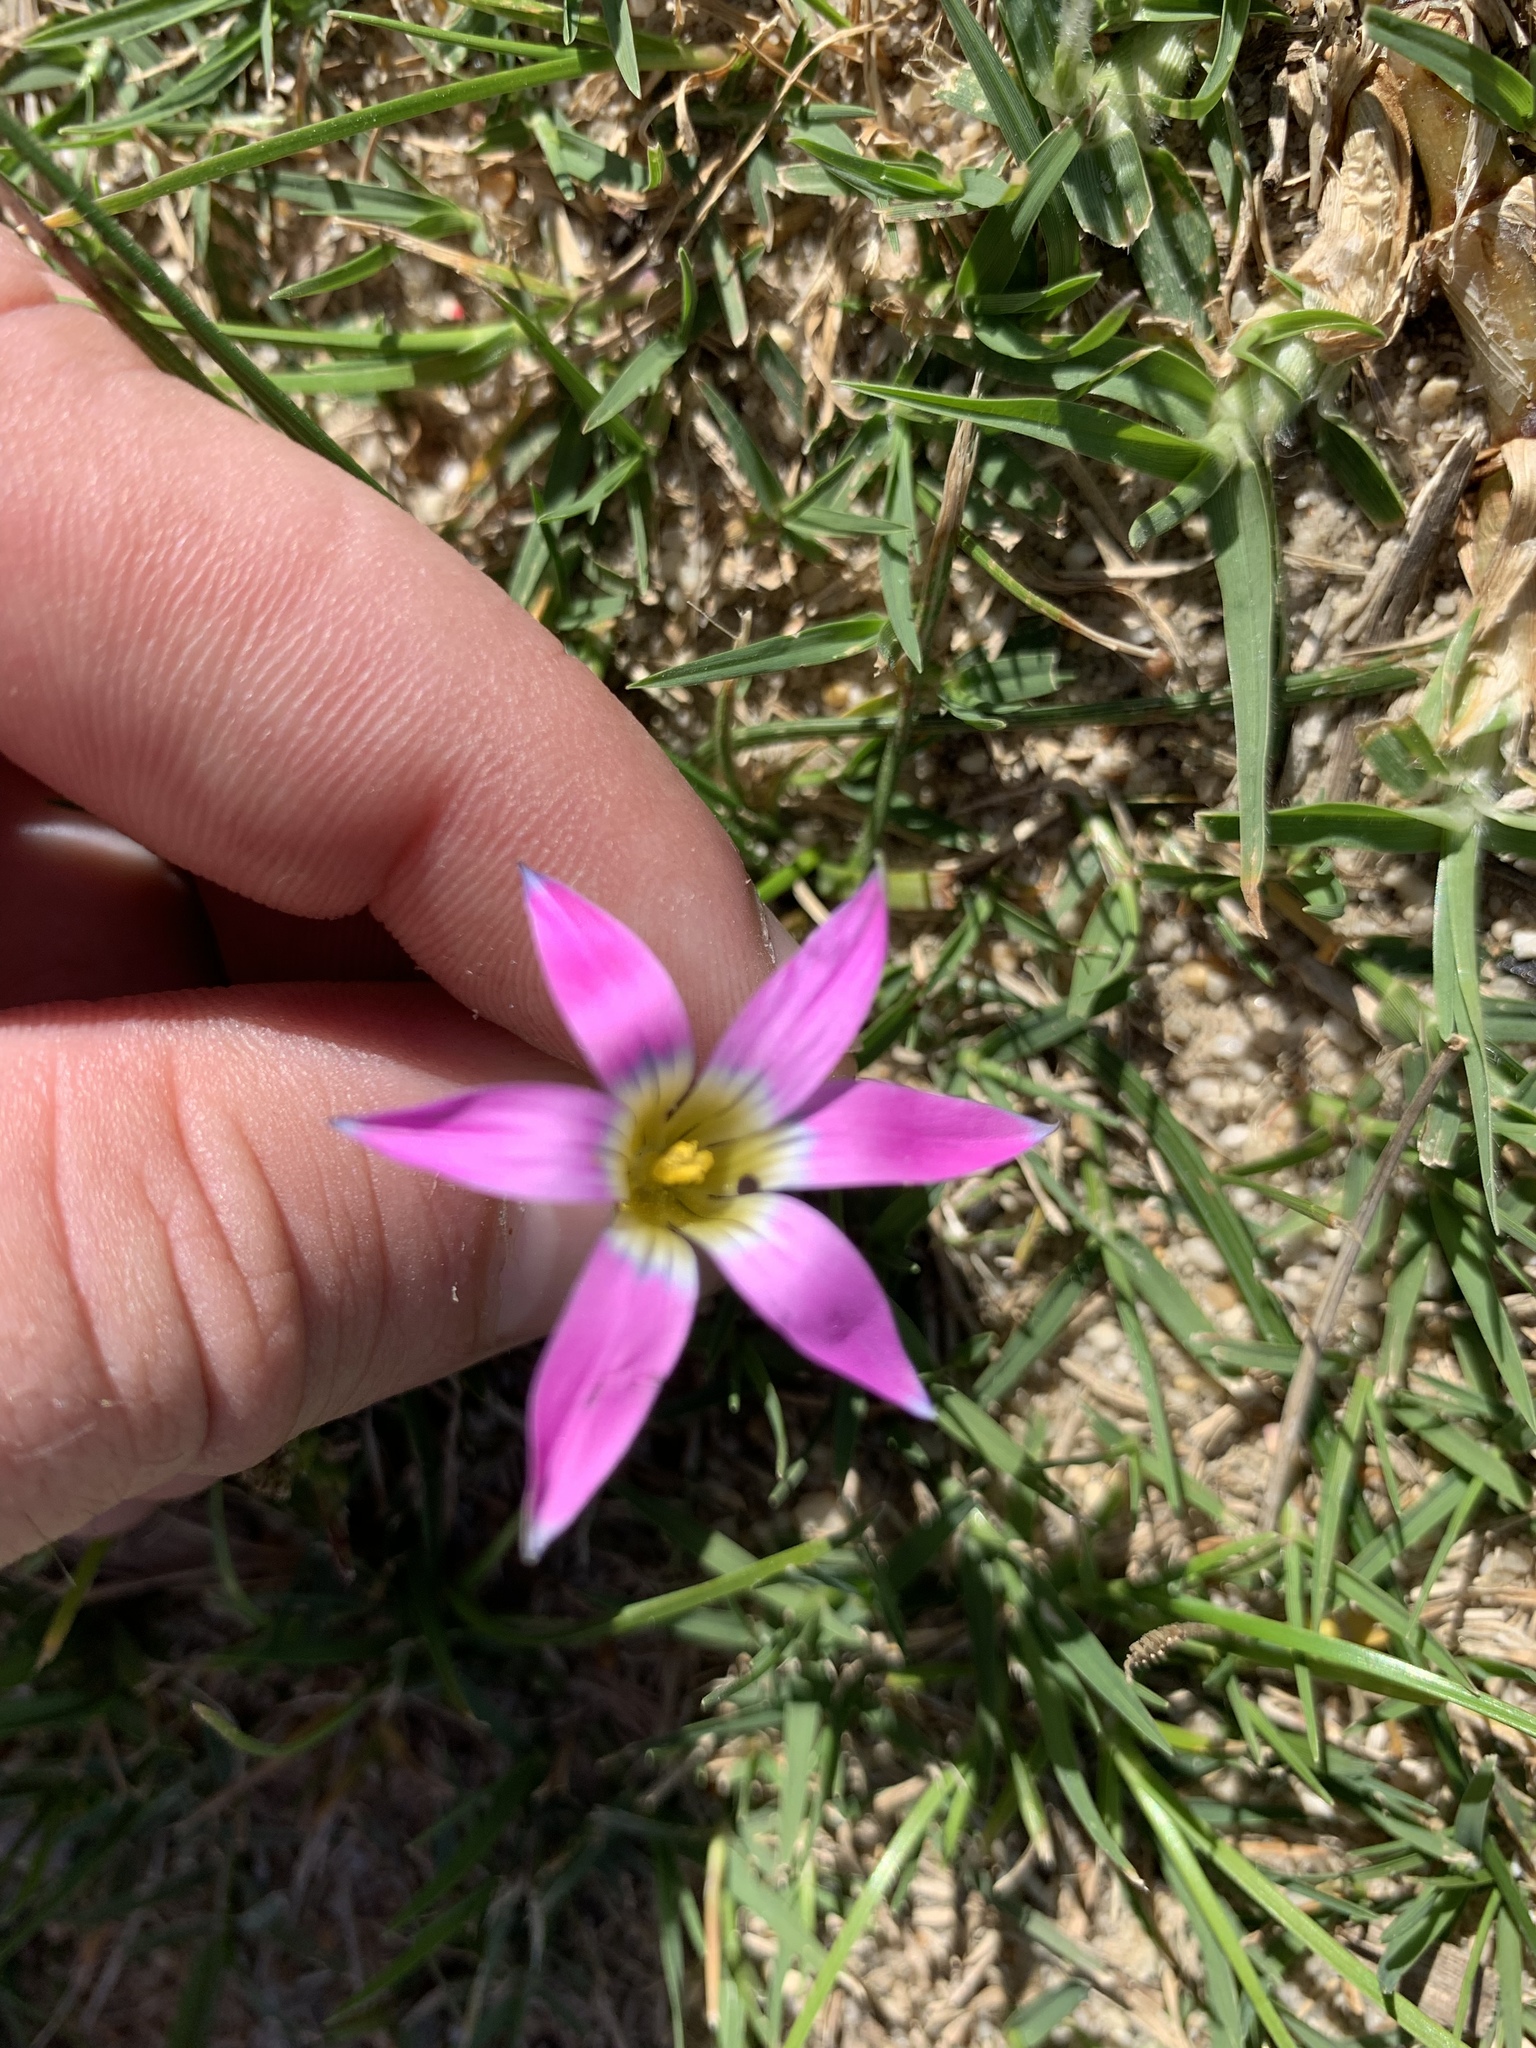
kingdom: Plantae
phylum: Tracheophyta
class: Liliopsida
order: Asparagales
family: Iridaceae
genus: Romulea
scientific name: Romulea rosea
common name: Oniongrass
